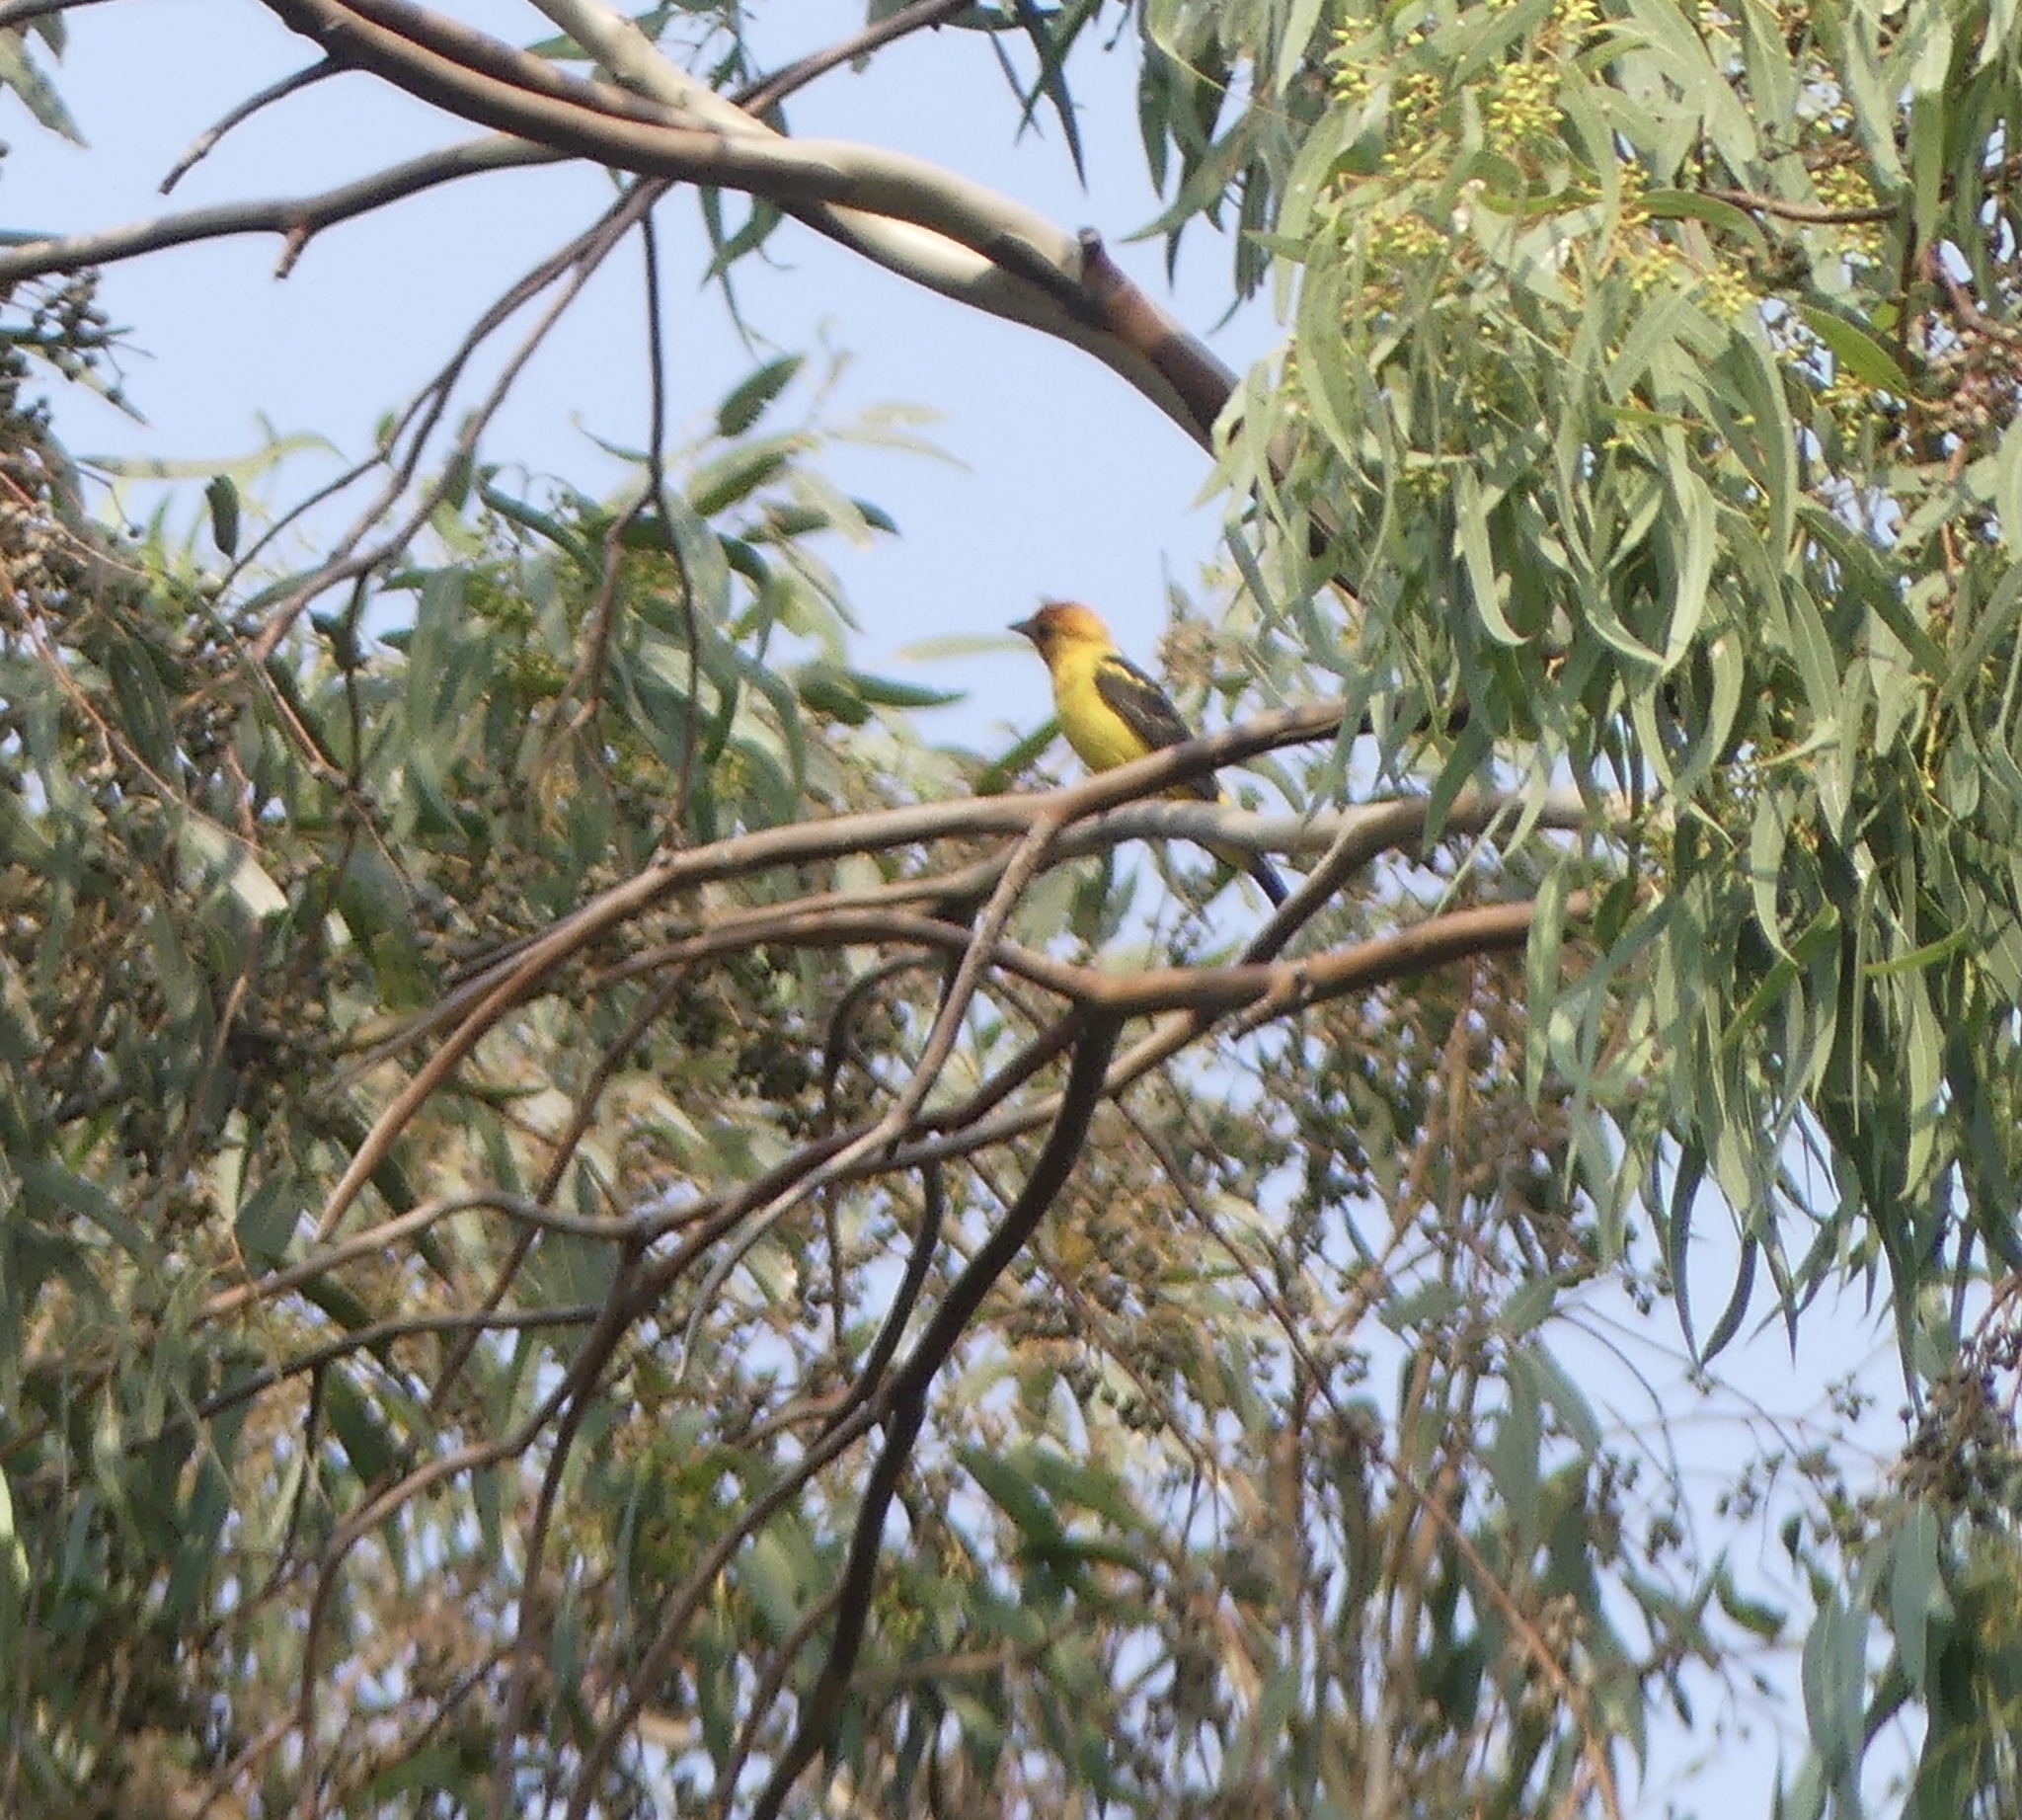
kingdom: Animalia
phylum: Chordata
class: Aves
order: Passeriformes
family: Cardinalidae
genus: Piranga
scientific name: Piranga ludoviciana
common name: Western tanager
